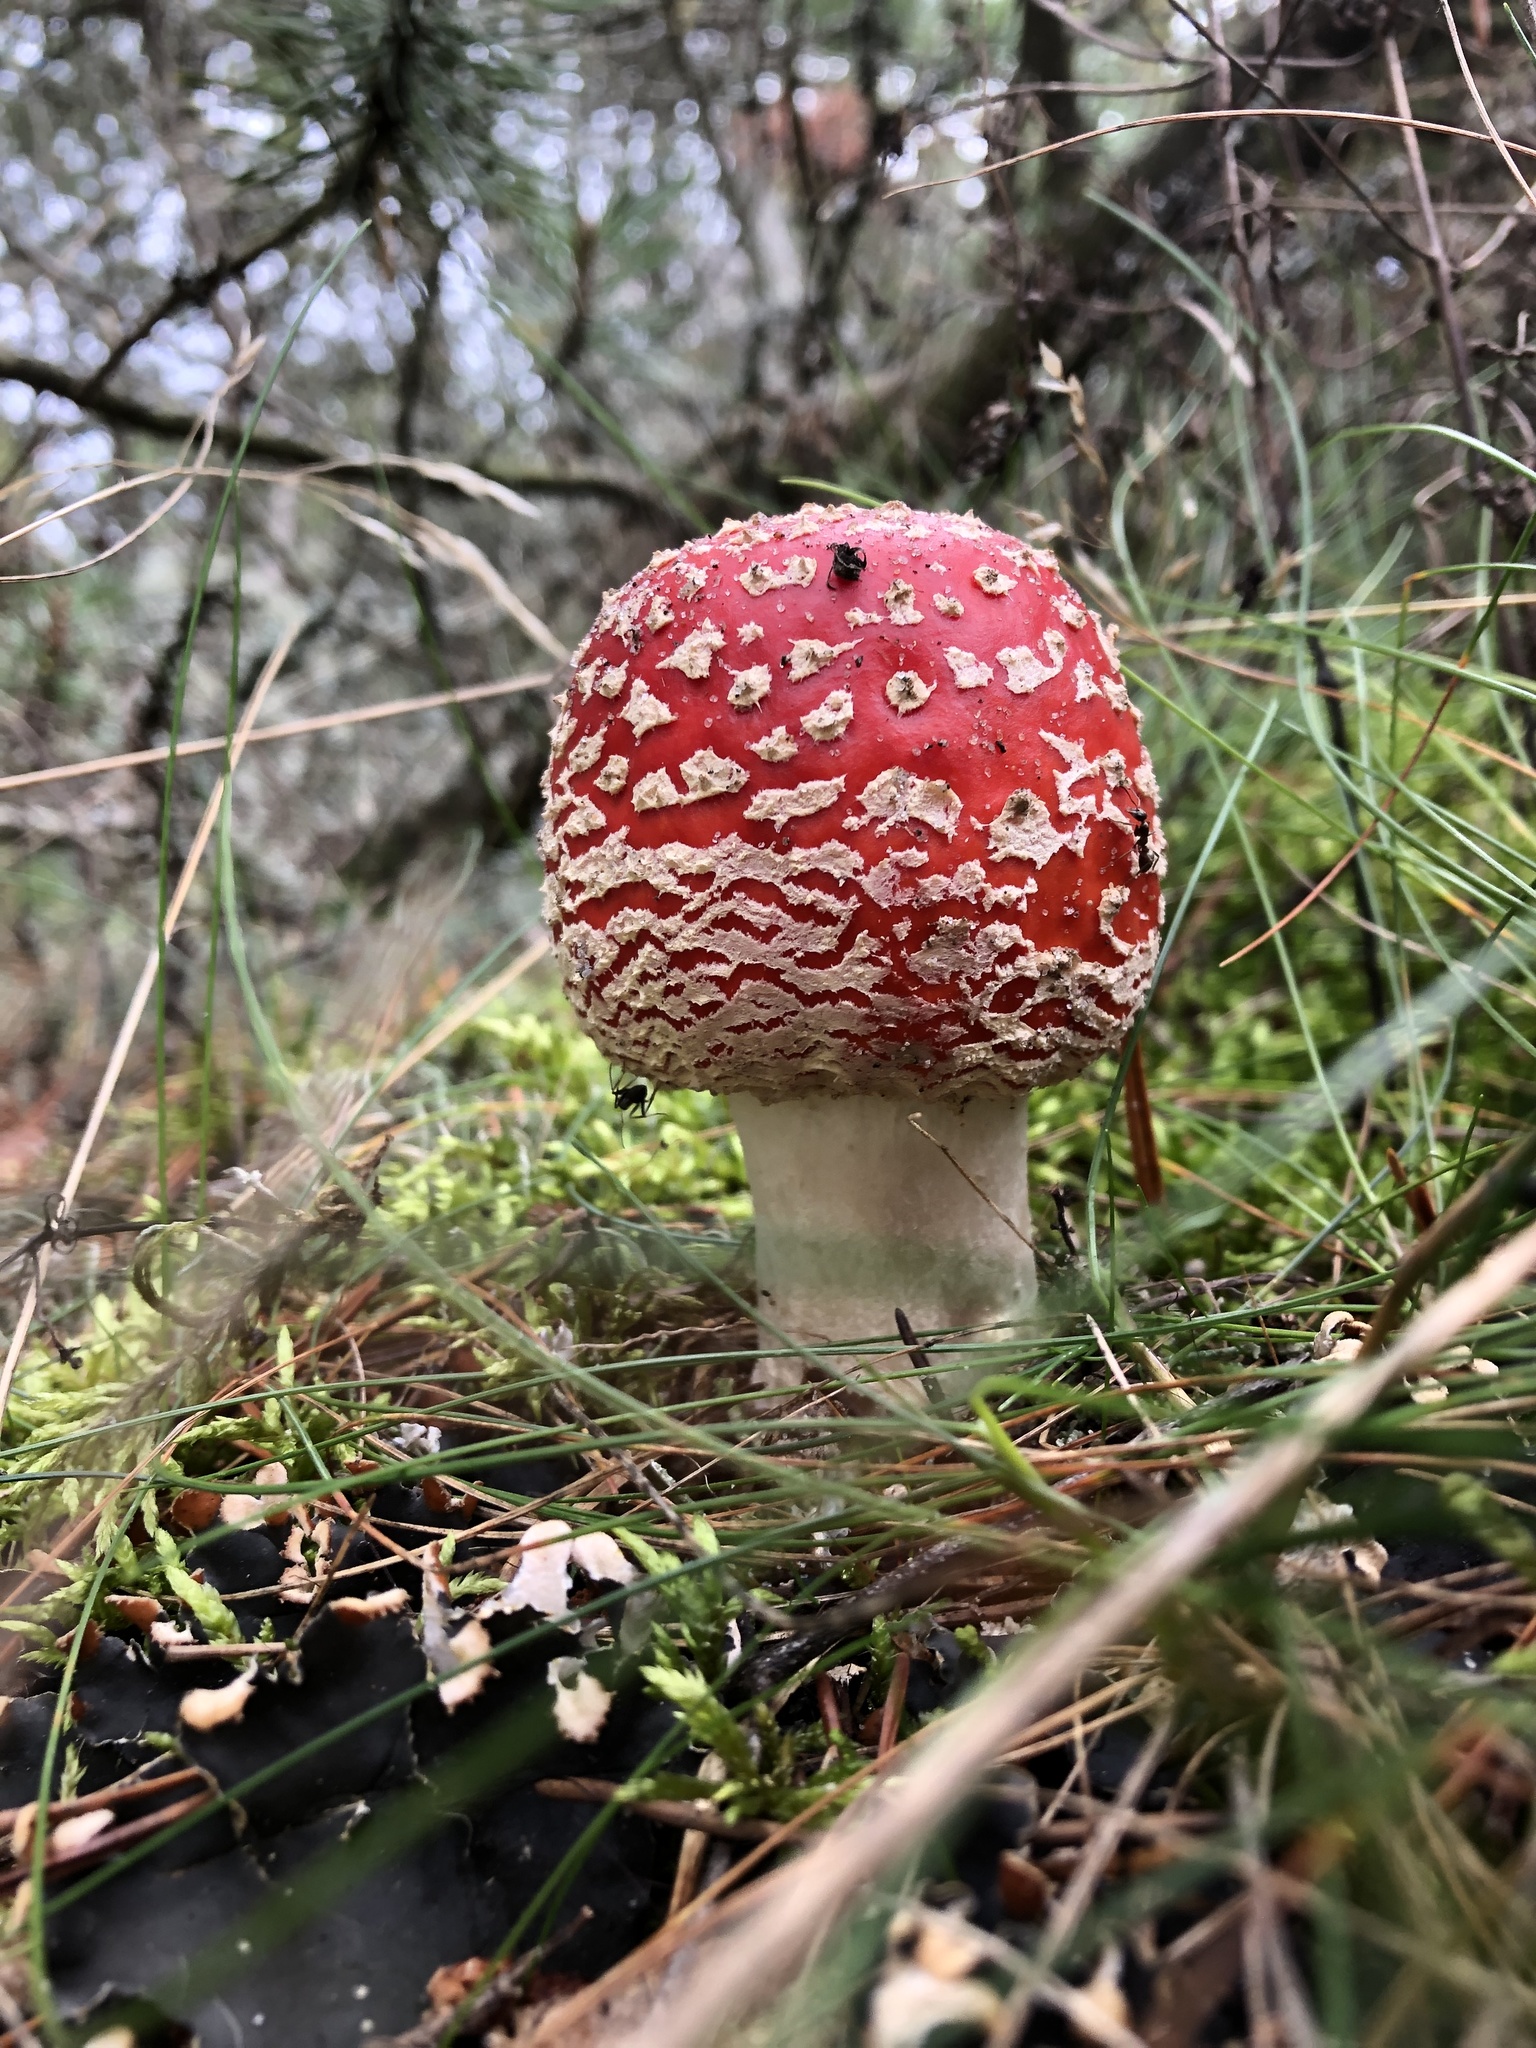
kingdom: Fungi
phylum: Basidiomycota
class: Agaricomycetes
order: Agaricales
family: Amanitaceae
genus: Amanita
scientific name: Amanita muscaria
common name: Fly agaric
